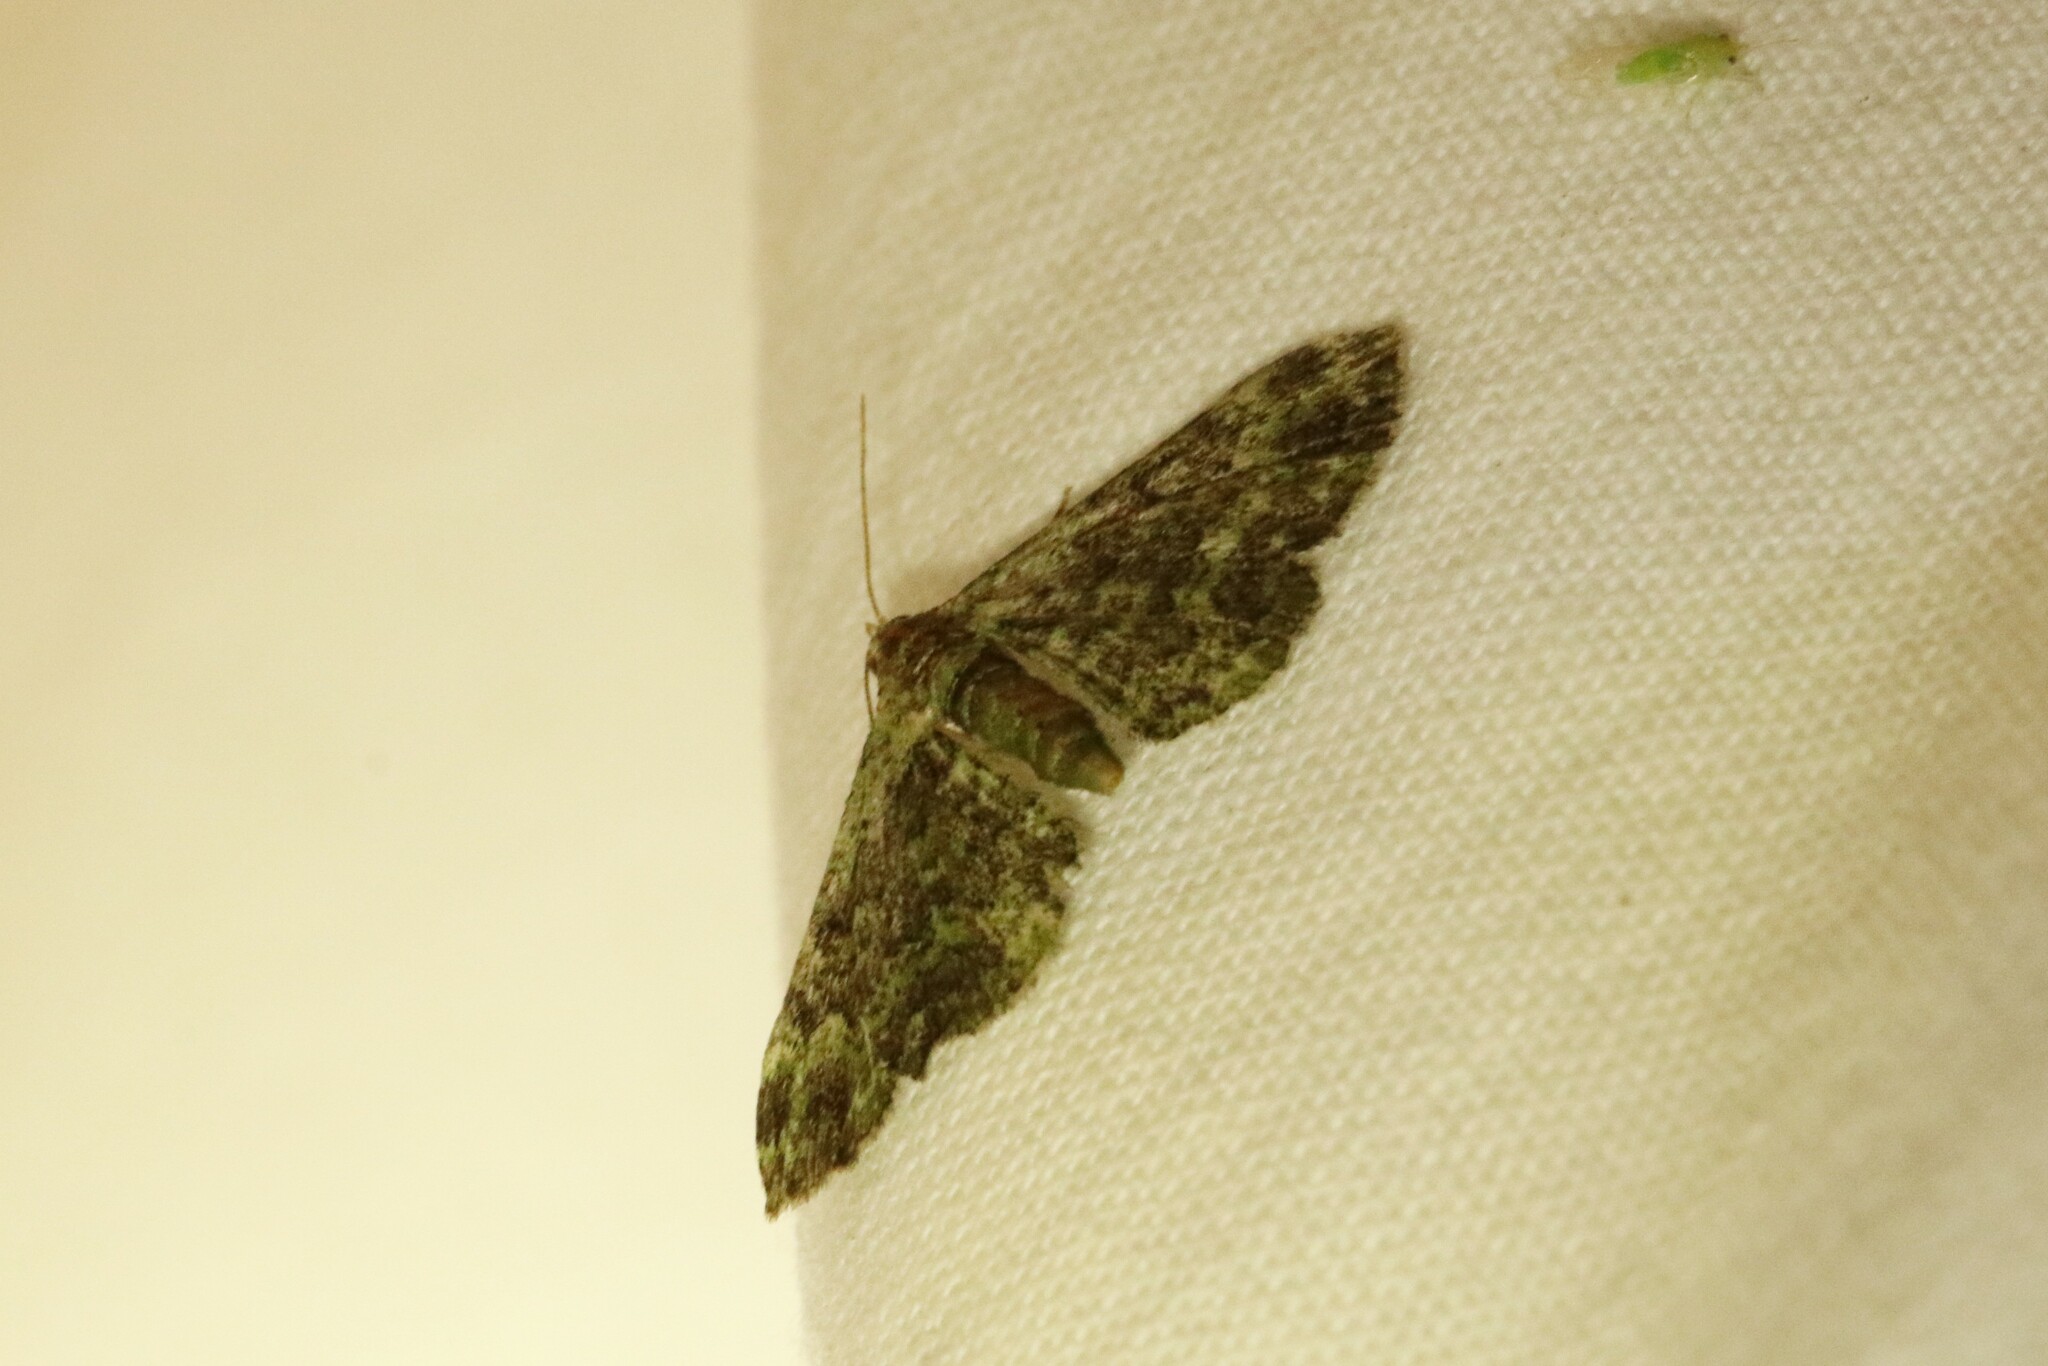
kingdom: Animalia
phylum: Arthropoda
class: Insecta
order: Lepidoptera
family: Geometridae
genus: Pasiphila
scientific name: Pasiphila rectangulata
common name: Green pug
